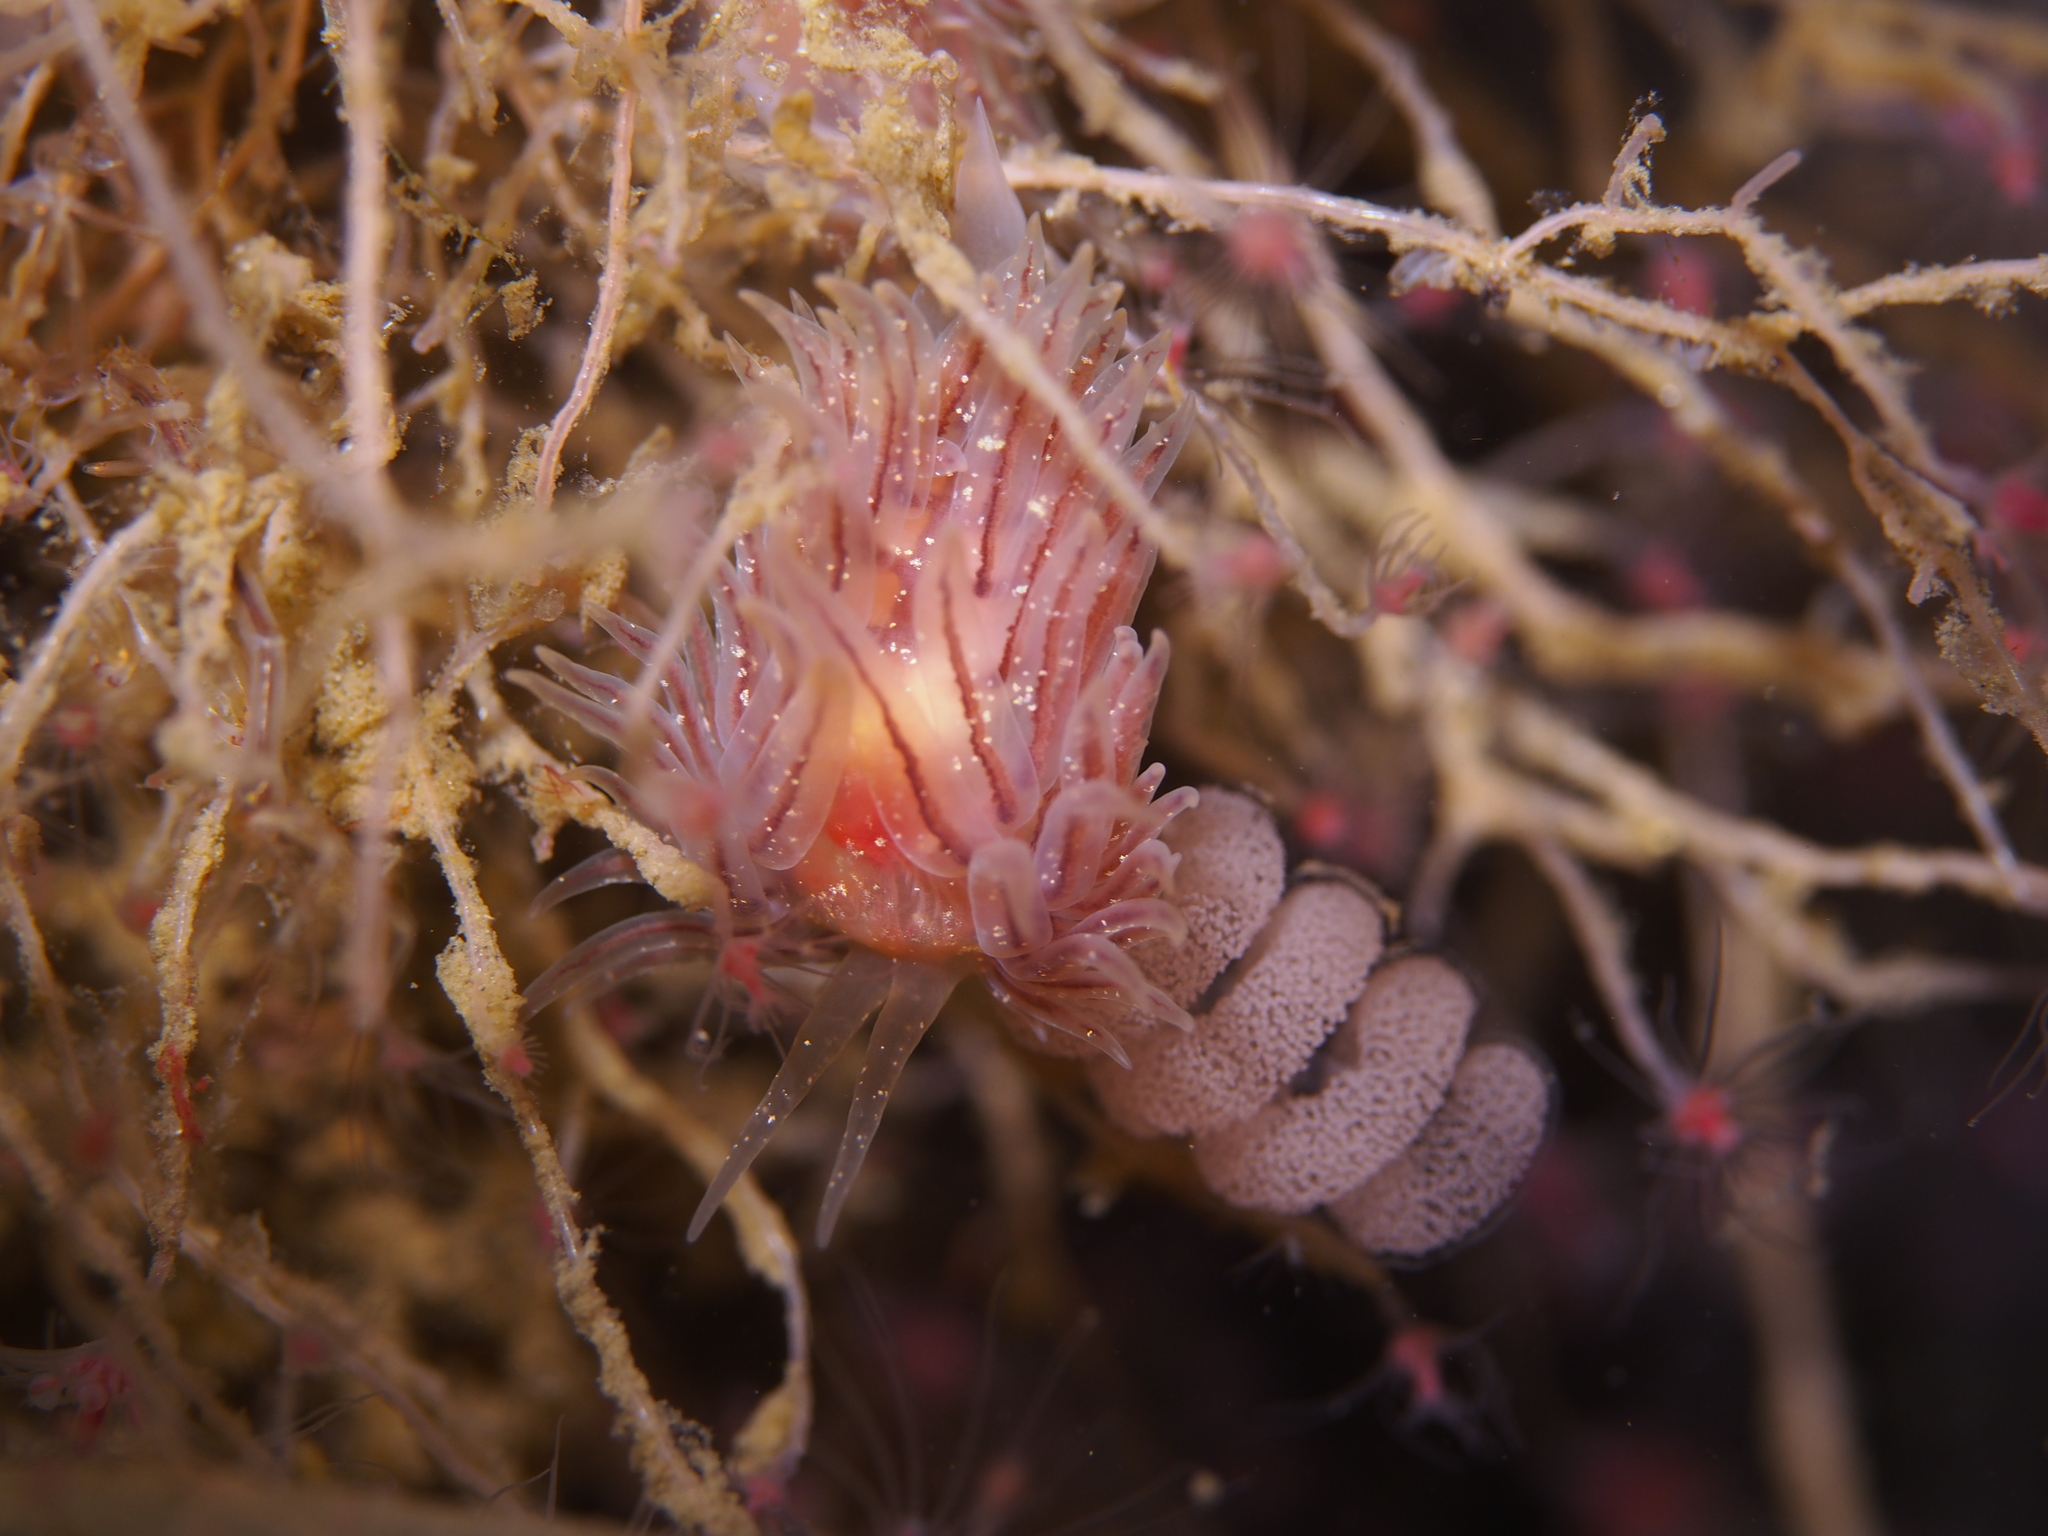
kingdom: Animalia
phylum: Mollusca
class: Gastropoda
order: Nudibranchia
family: Cumanotidae
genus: Cumanotus
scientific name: Cumanotus beaumonti
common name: Polyp aeolis
